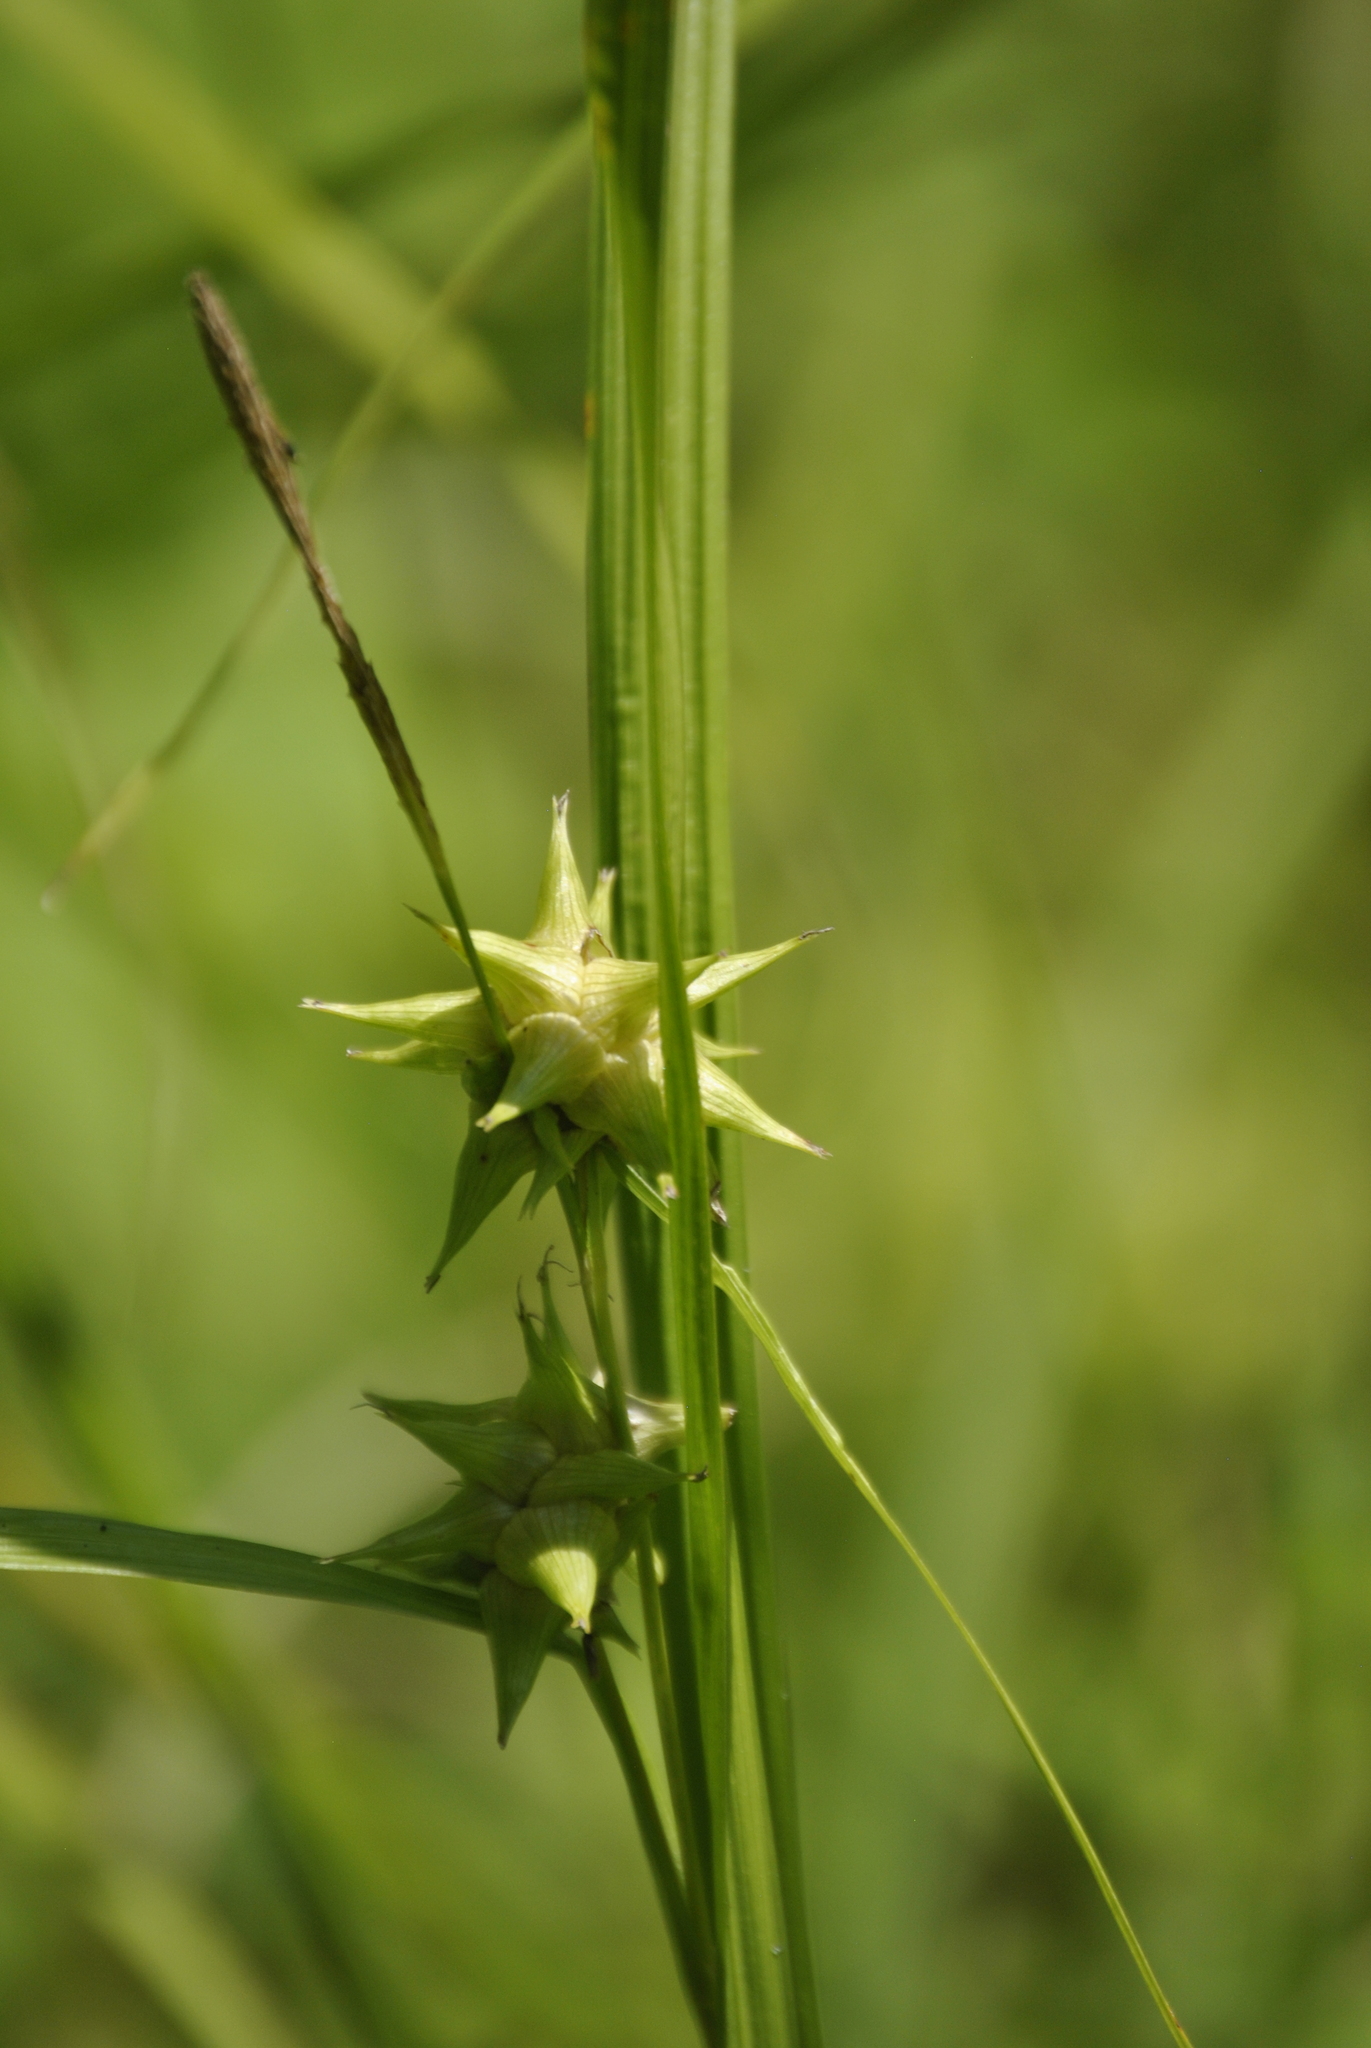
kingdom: Plantae
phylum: Tracheophyta
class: Liliopsida
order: Poales
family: Cyperaceae
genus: Carex
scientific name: Carex grayi
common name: Asa gray's sedge
